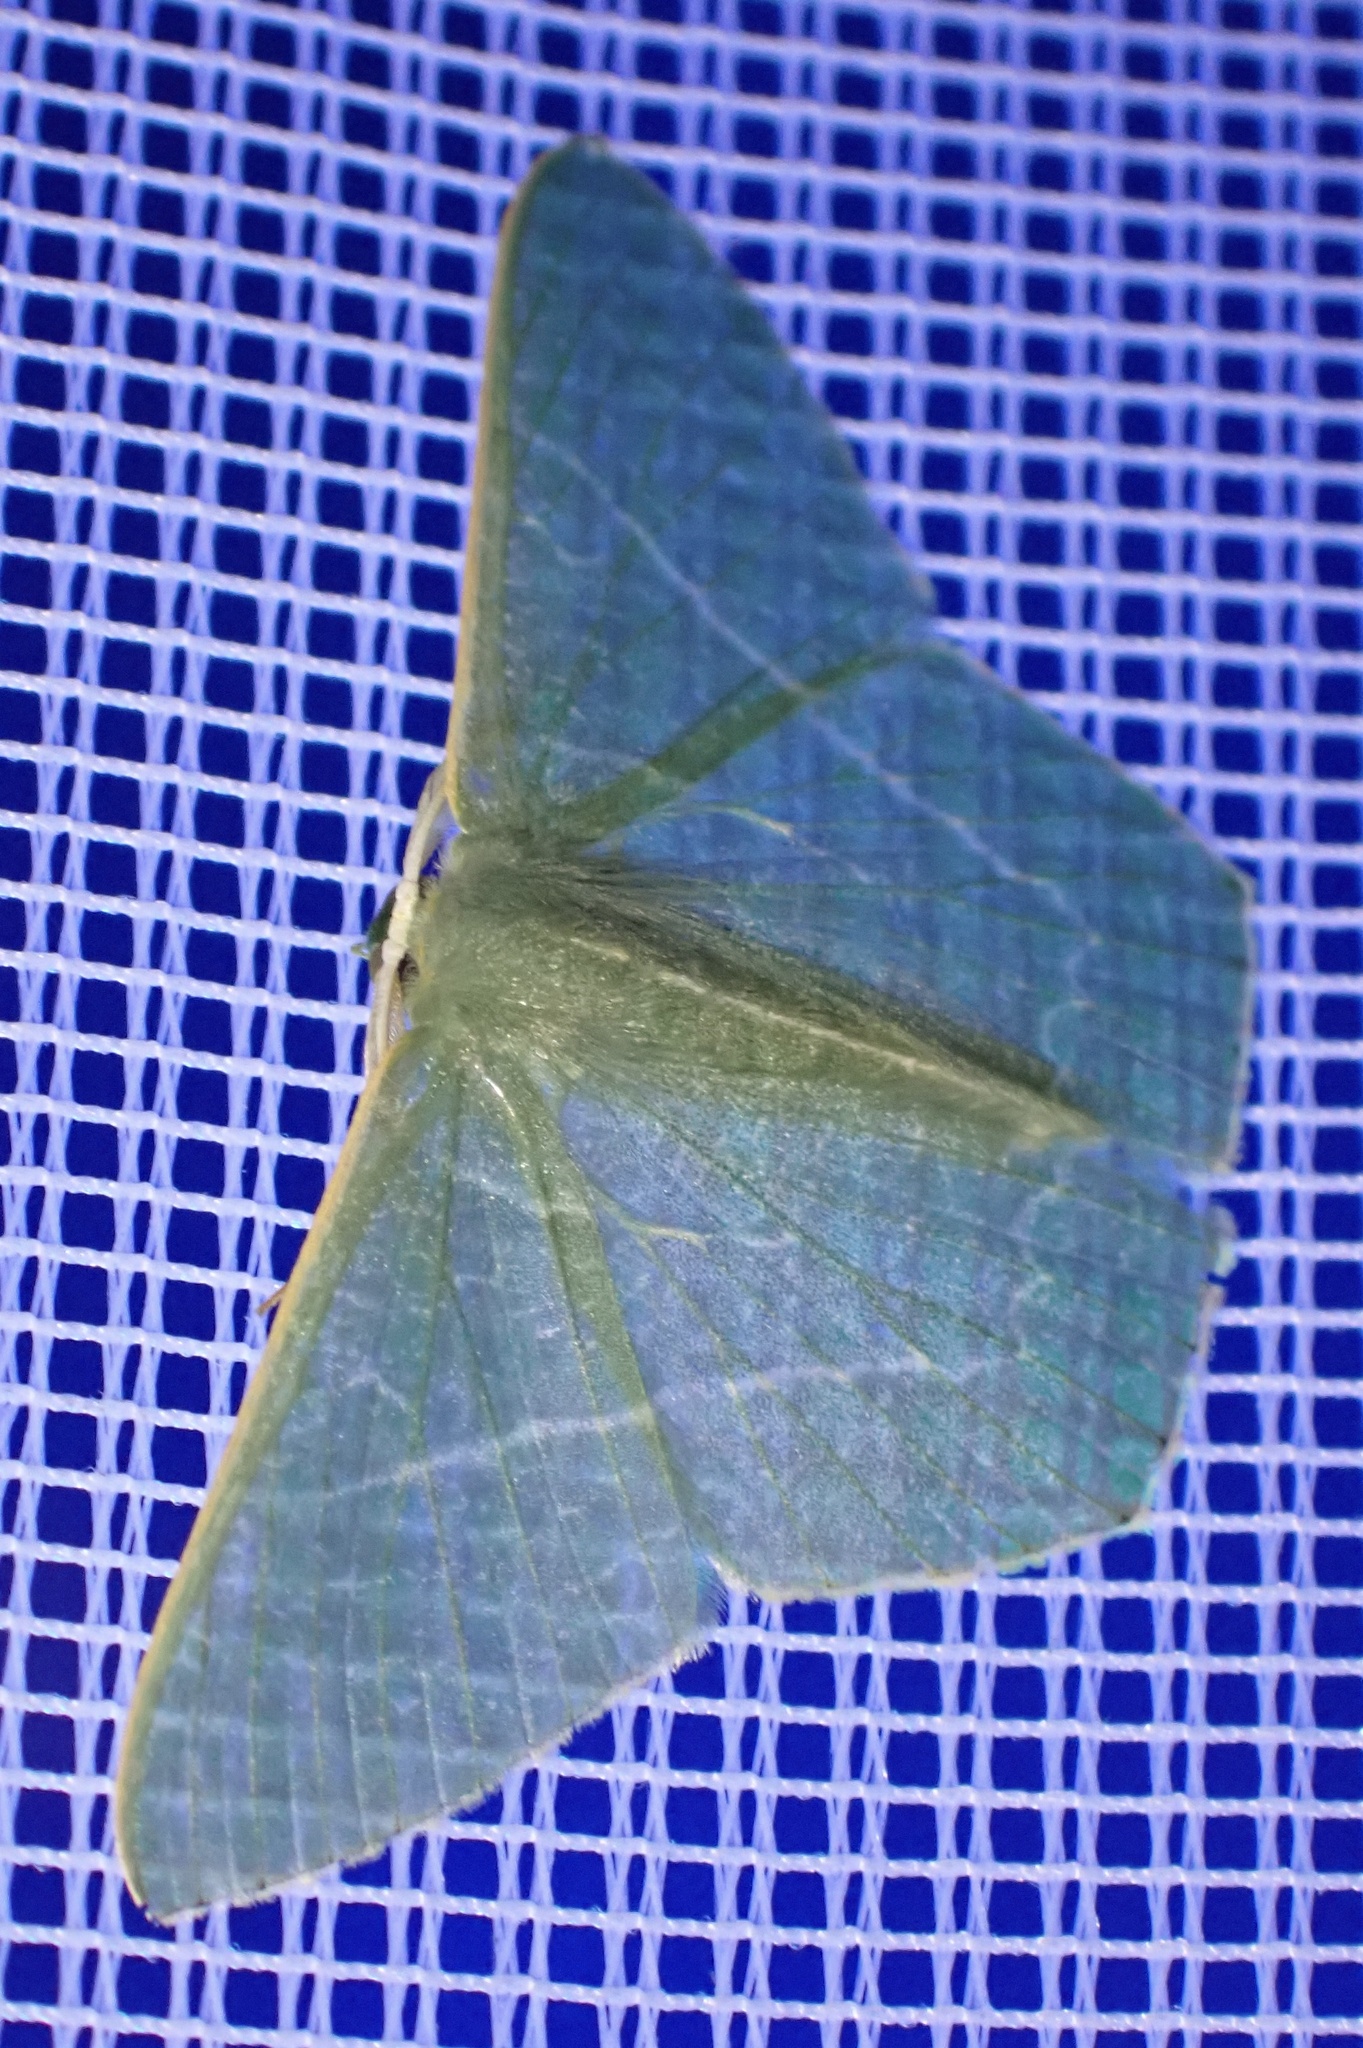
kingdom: Animalia
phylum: Arthropoda
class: Insecta
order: Lepidoptera
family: Geometridae
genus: Thalassodes
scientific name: Thalassodes dorsilinea
